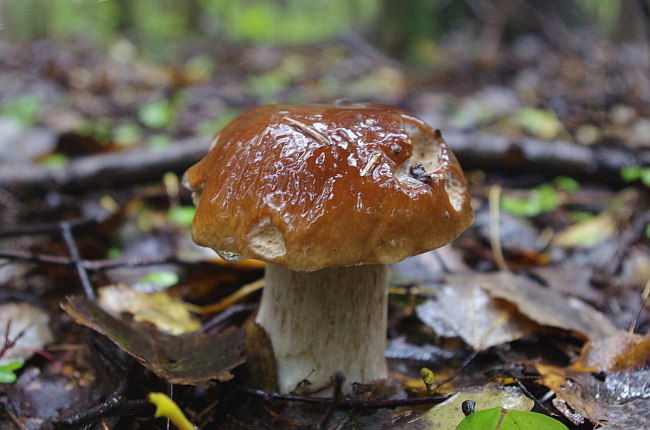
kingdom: Fungi
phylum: Basidiomycota
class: Agaricomycetes
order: Boletales
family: Boletaceae
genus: Boletus
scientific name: Boletus edulis
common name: Cep
